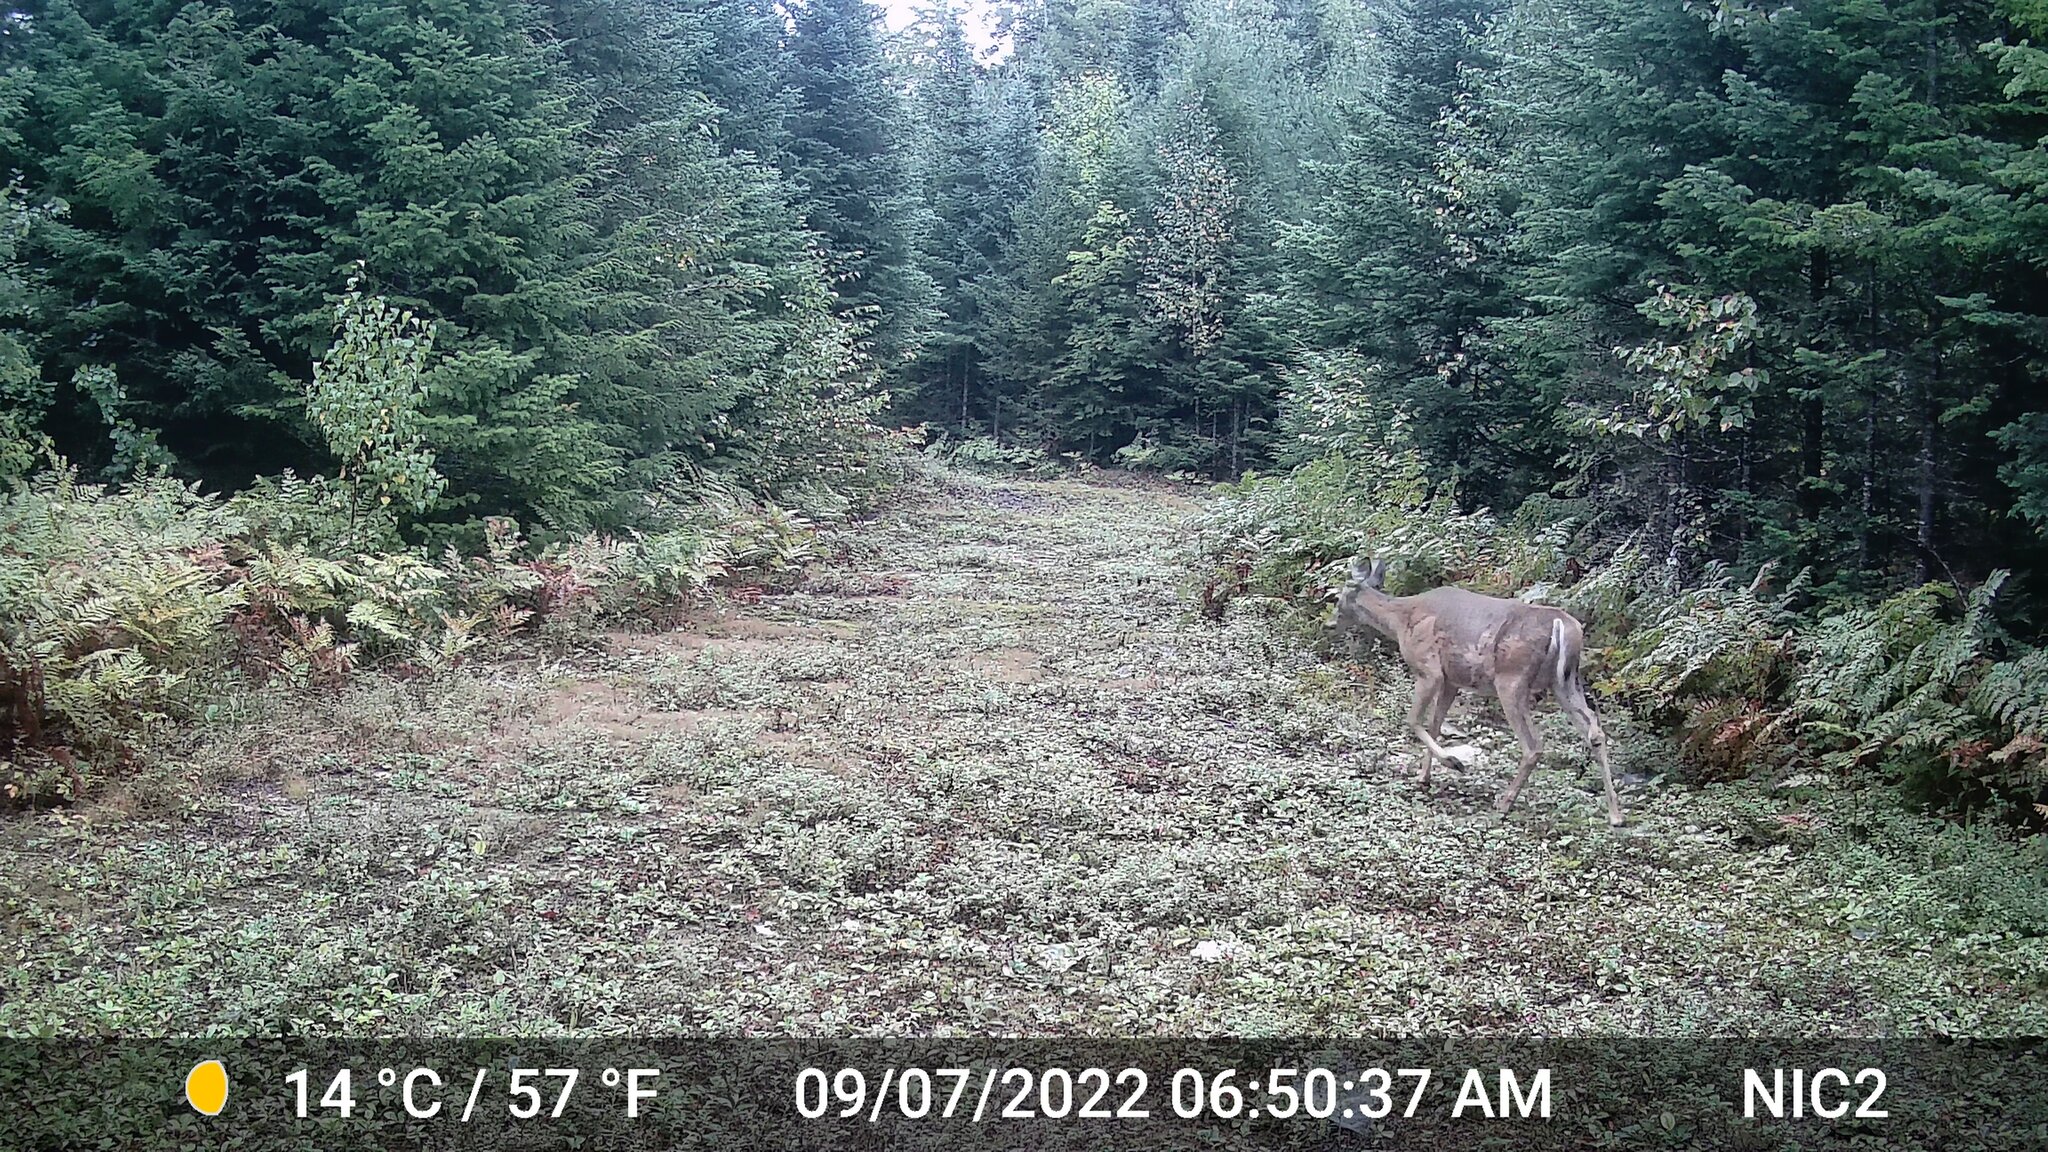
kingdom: Animalia
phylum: Chordata
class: Mammalia
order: Artiodactyla
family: Cervidae
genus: Odocoileus
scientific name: Odocoileus virginianus
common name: White-tailed deer
